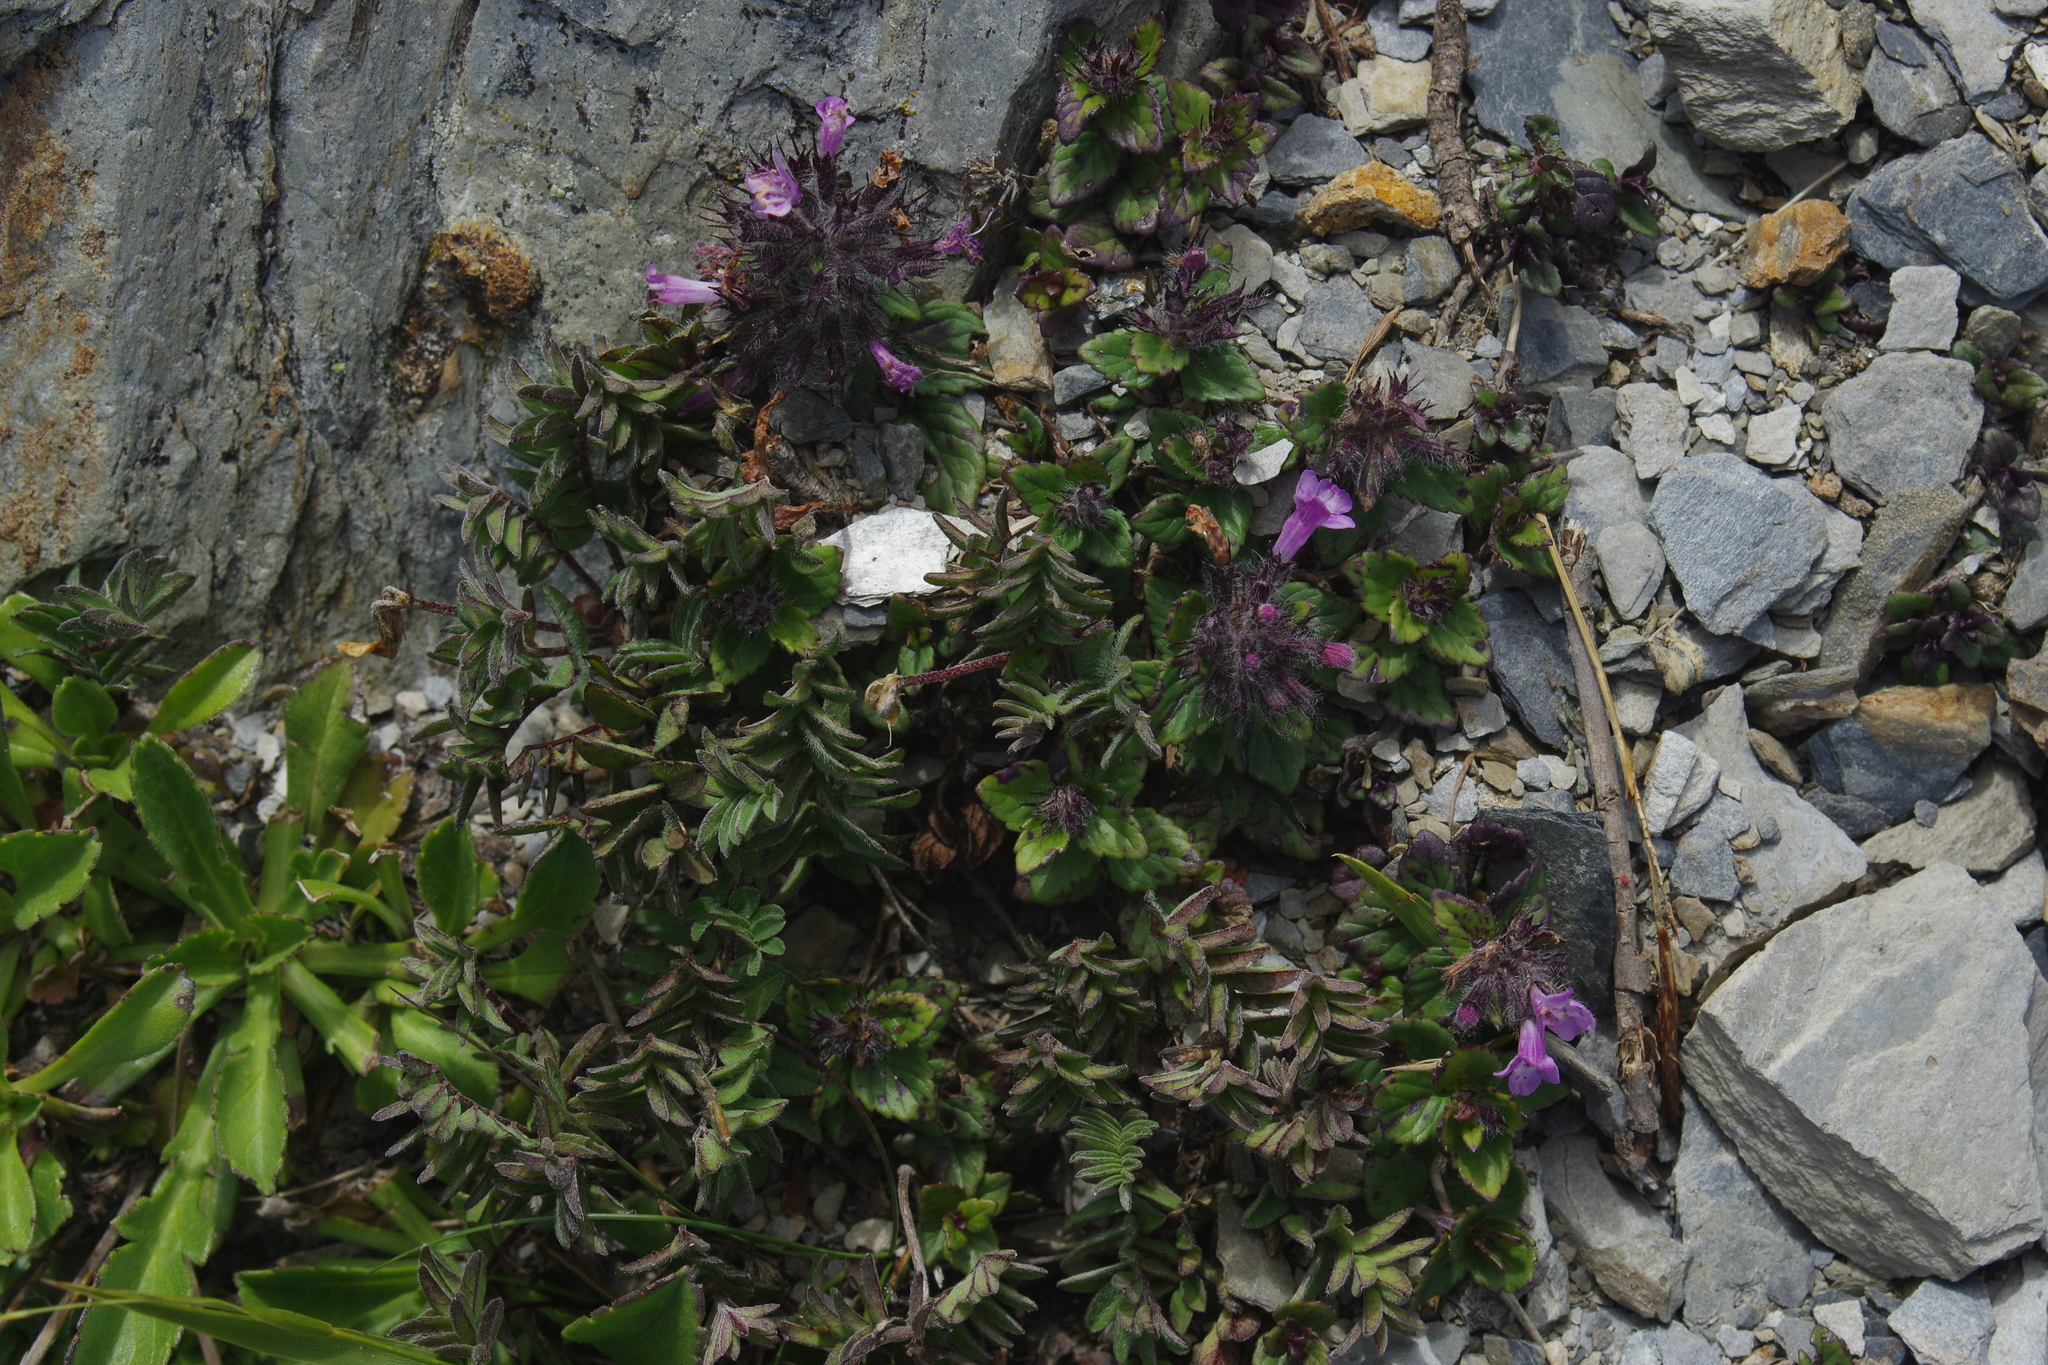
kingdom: Plantae
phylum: Tracheophyta
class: Magnoliopsida
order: Lamiales
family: Lamiaceae
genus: Clinopodium
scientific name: Clinopodium laxiflorum
